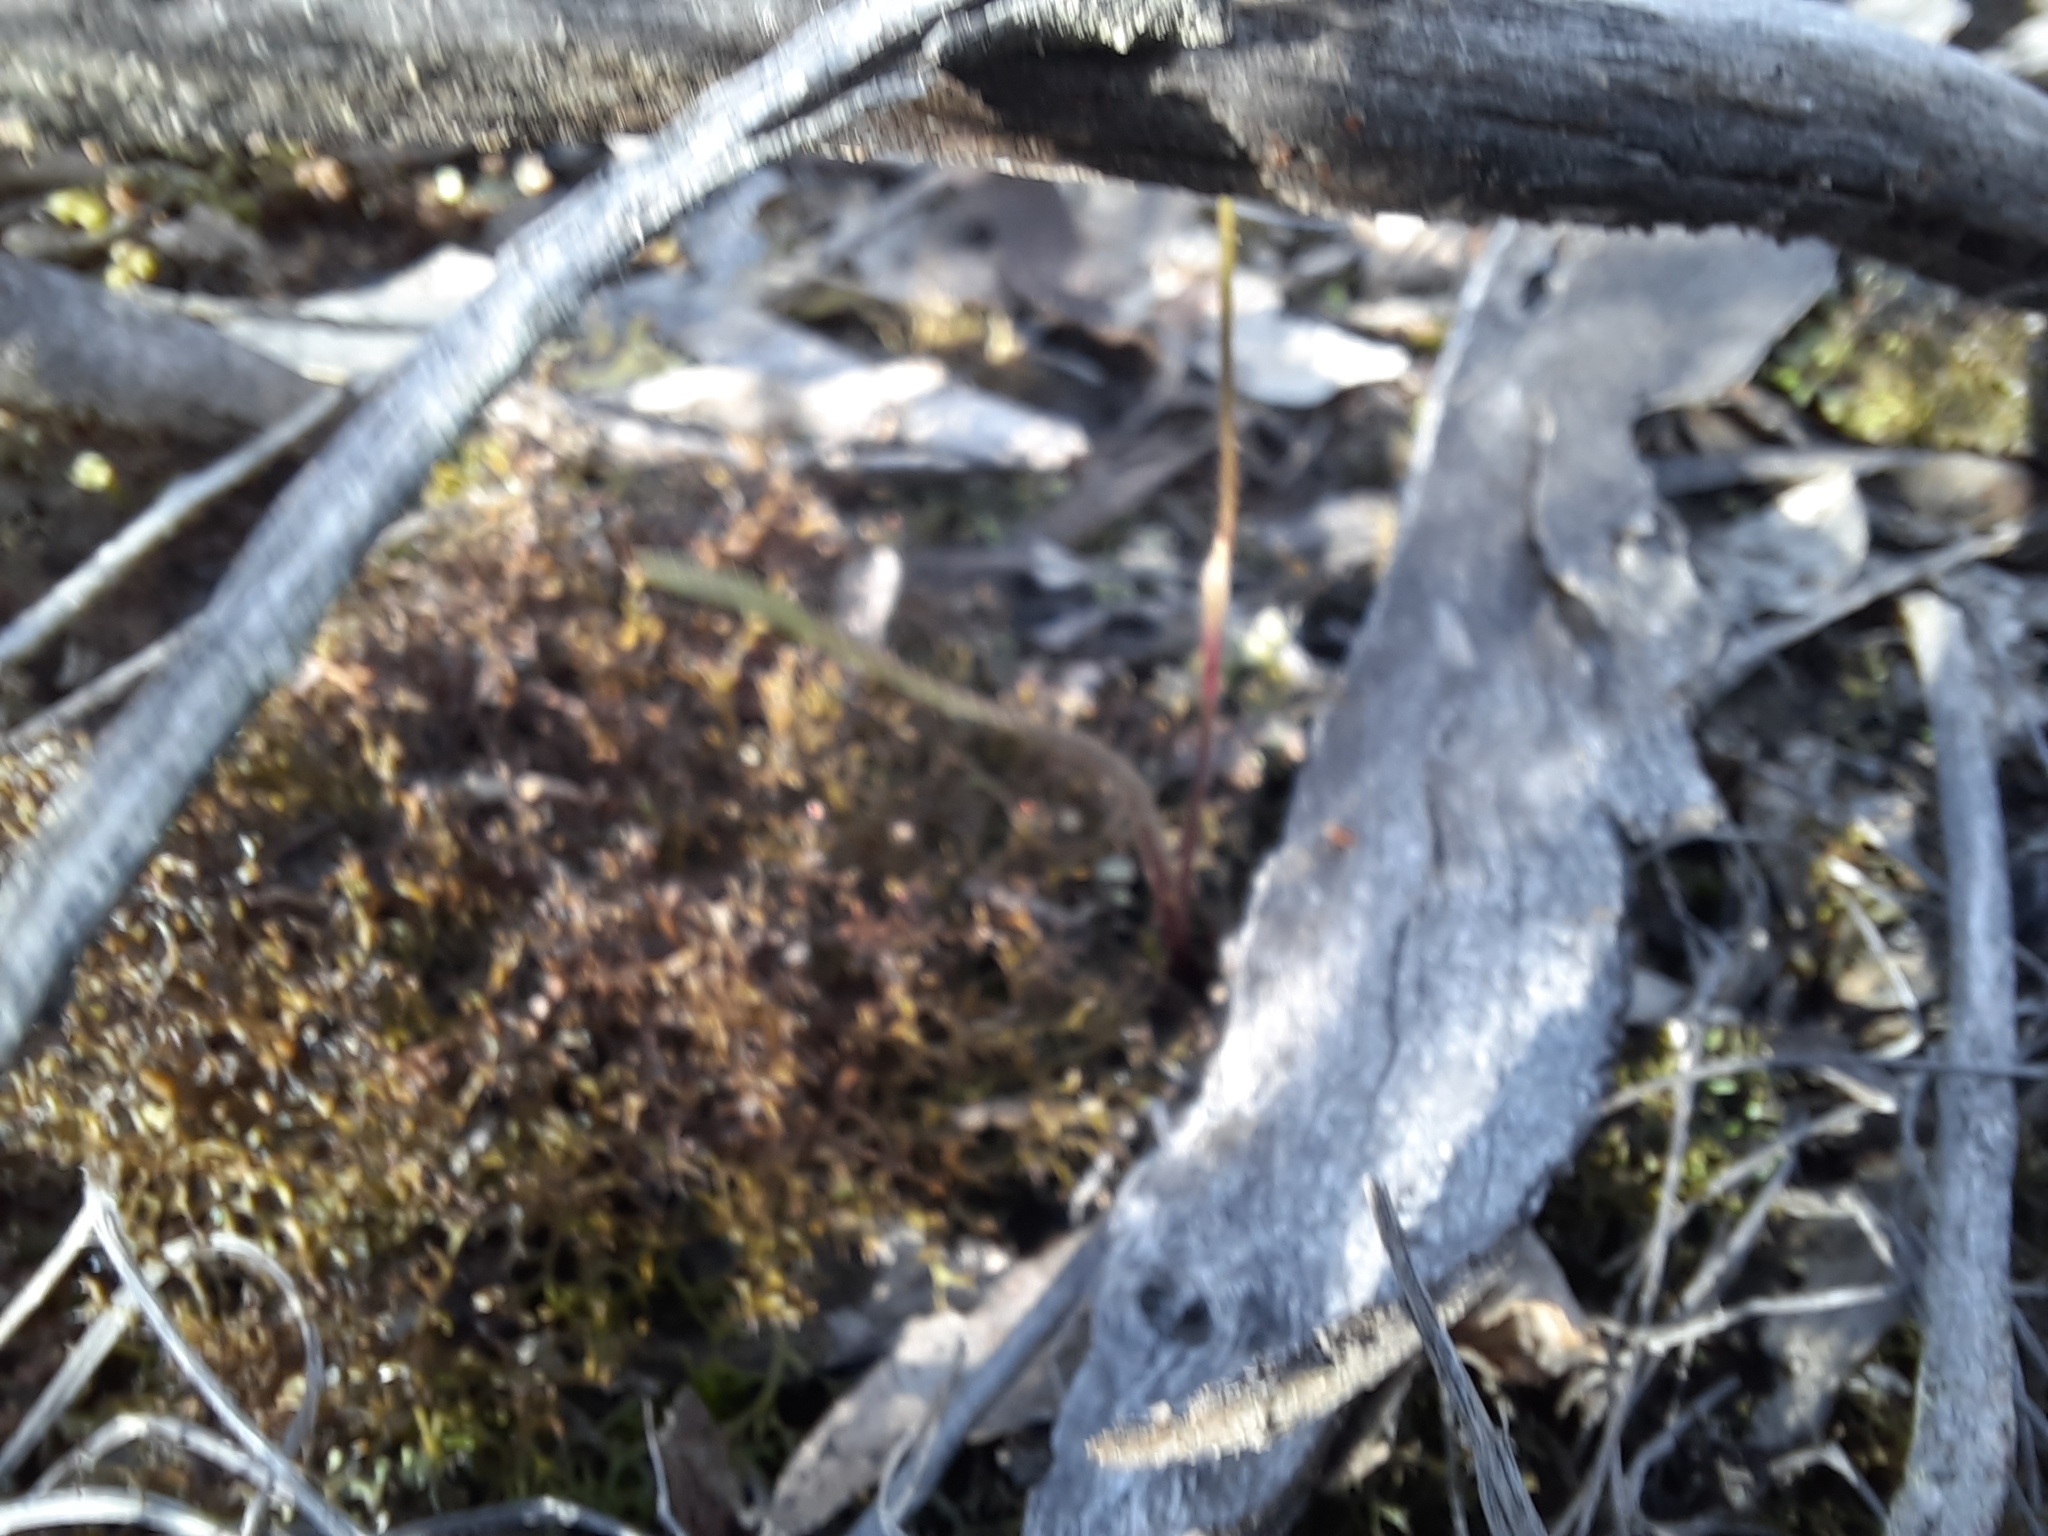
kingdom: Plantae
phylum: Tracheophyta
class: Liliopsida
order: Asparagales
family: Orchidaceae
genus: Caladenia
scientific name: Caladenia fuscata
